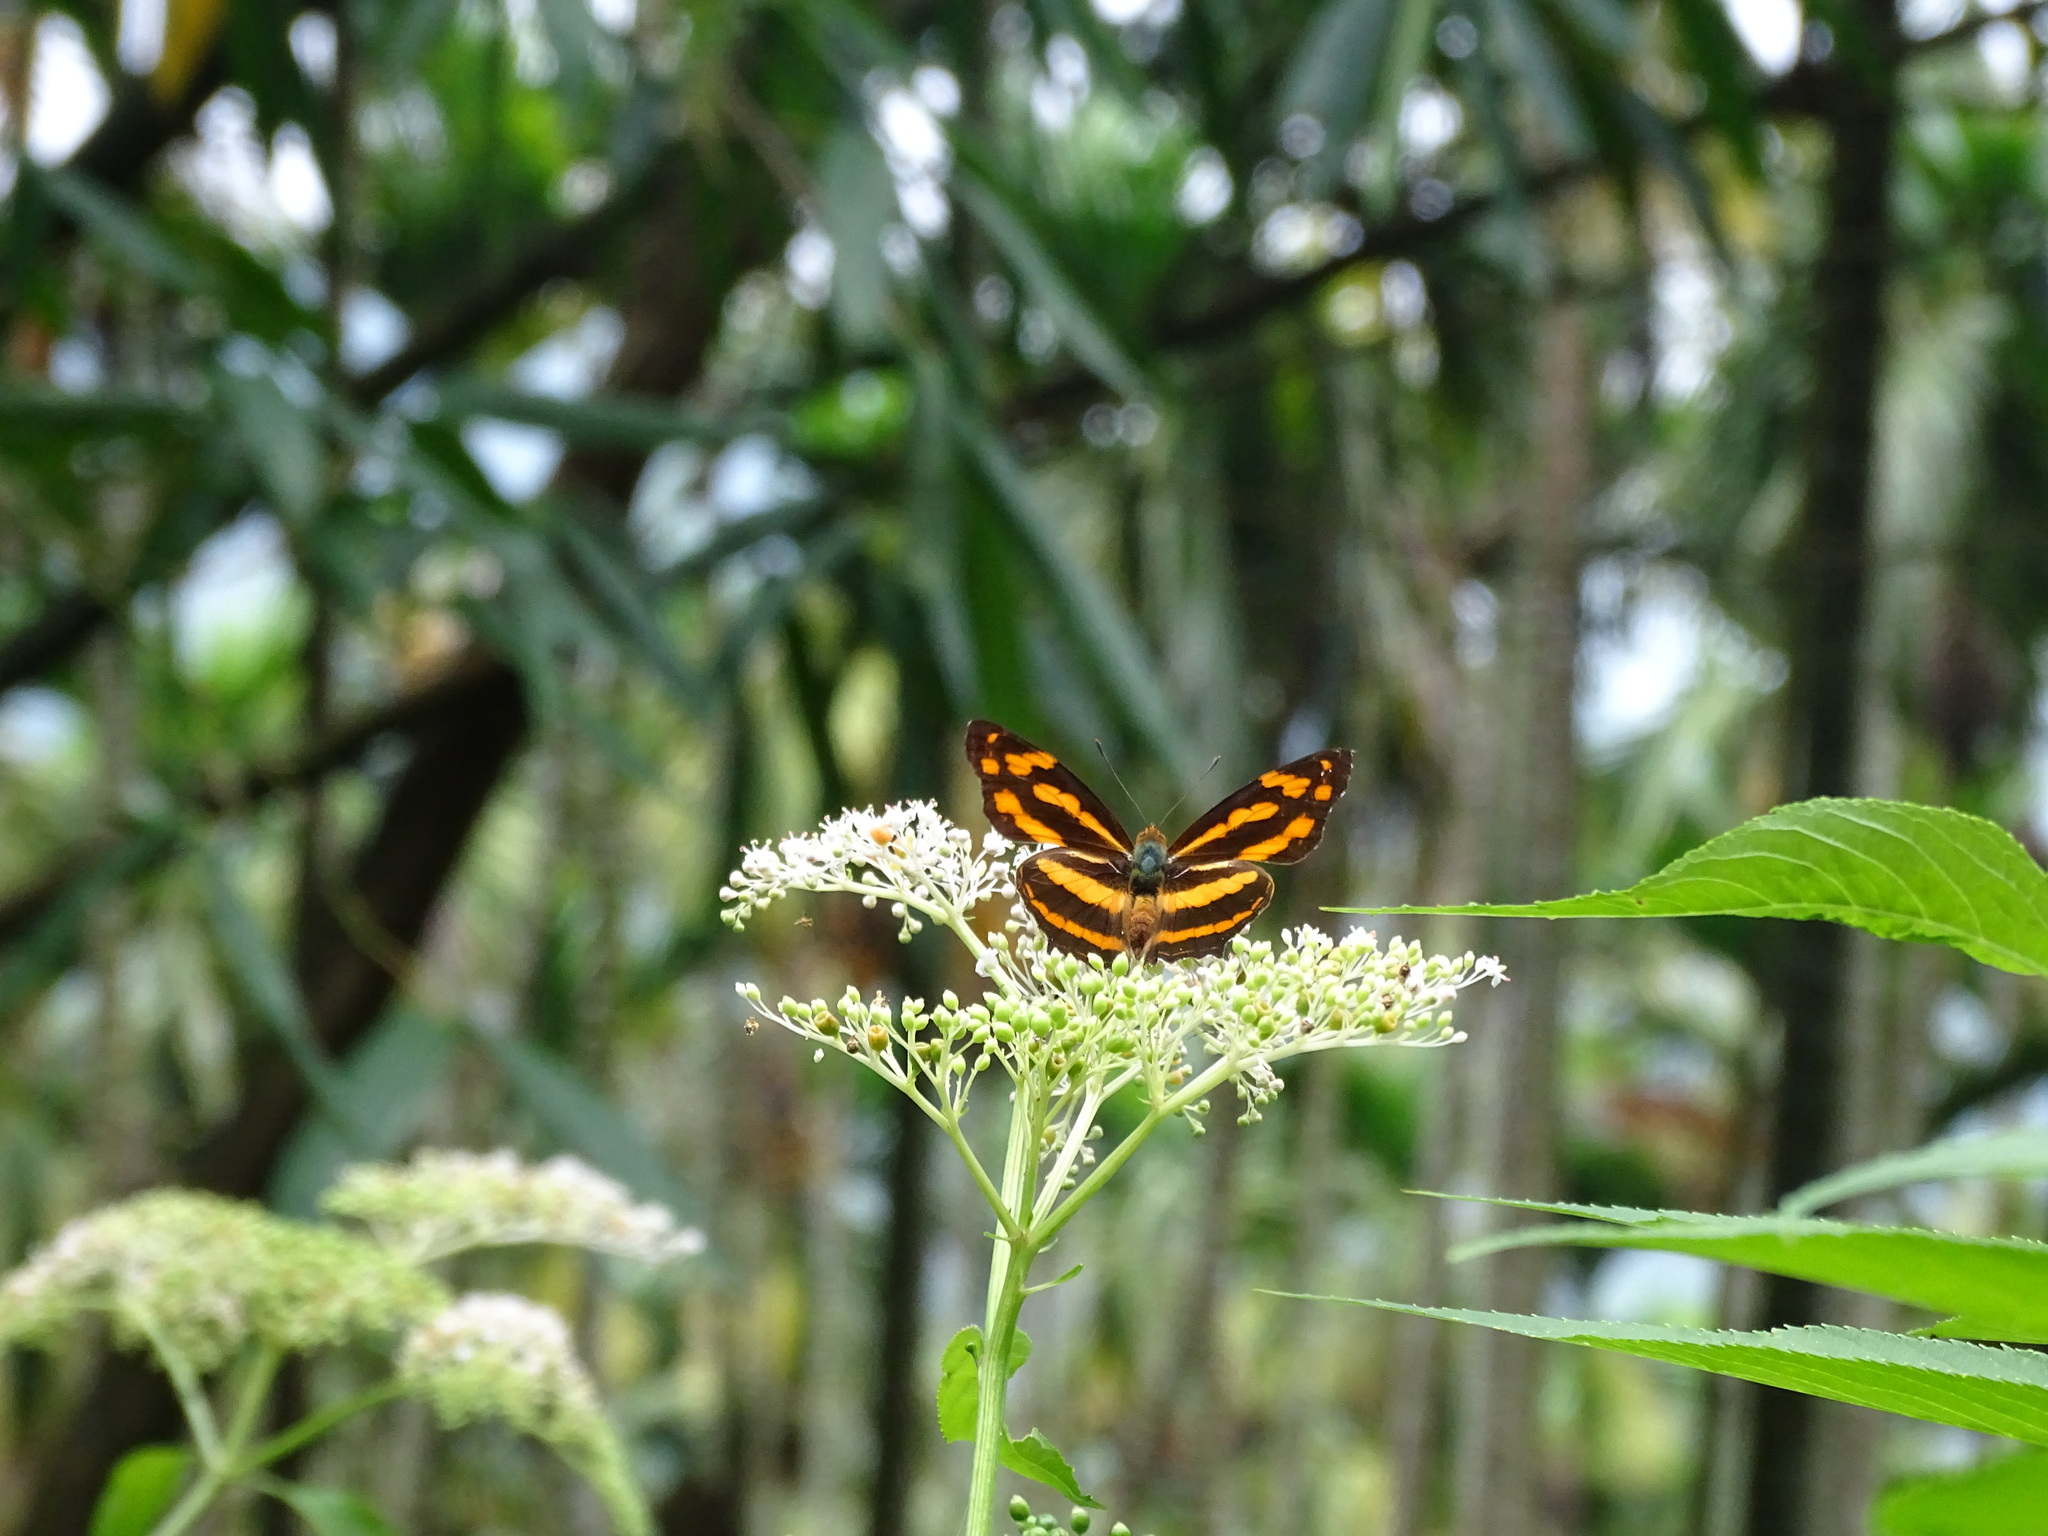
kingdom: Animalia
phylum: Arthropoda
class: Insecta
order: Lepidoptera
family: Nymphalidae
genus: Symbrenthia
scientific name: Symbrenthia hypselis
